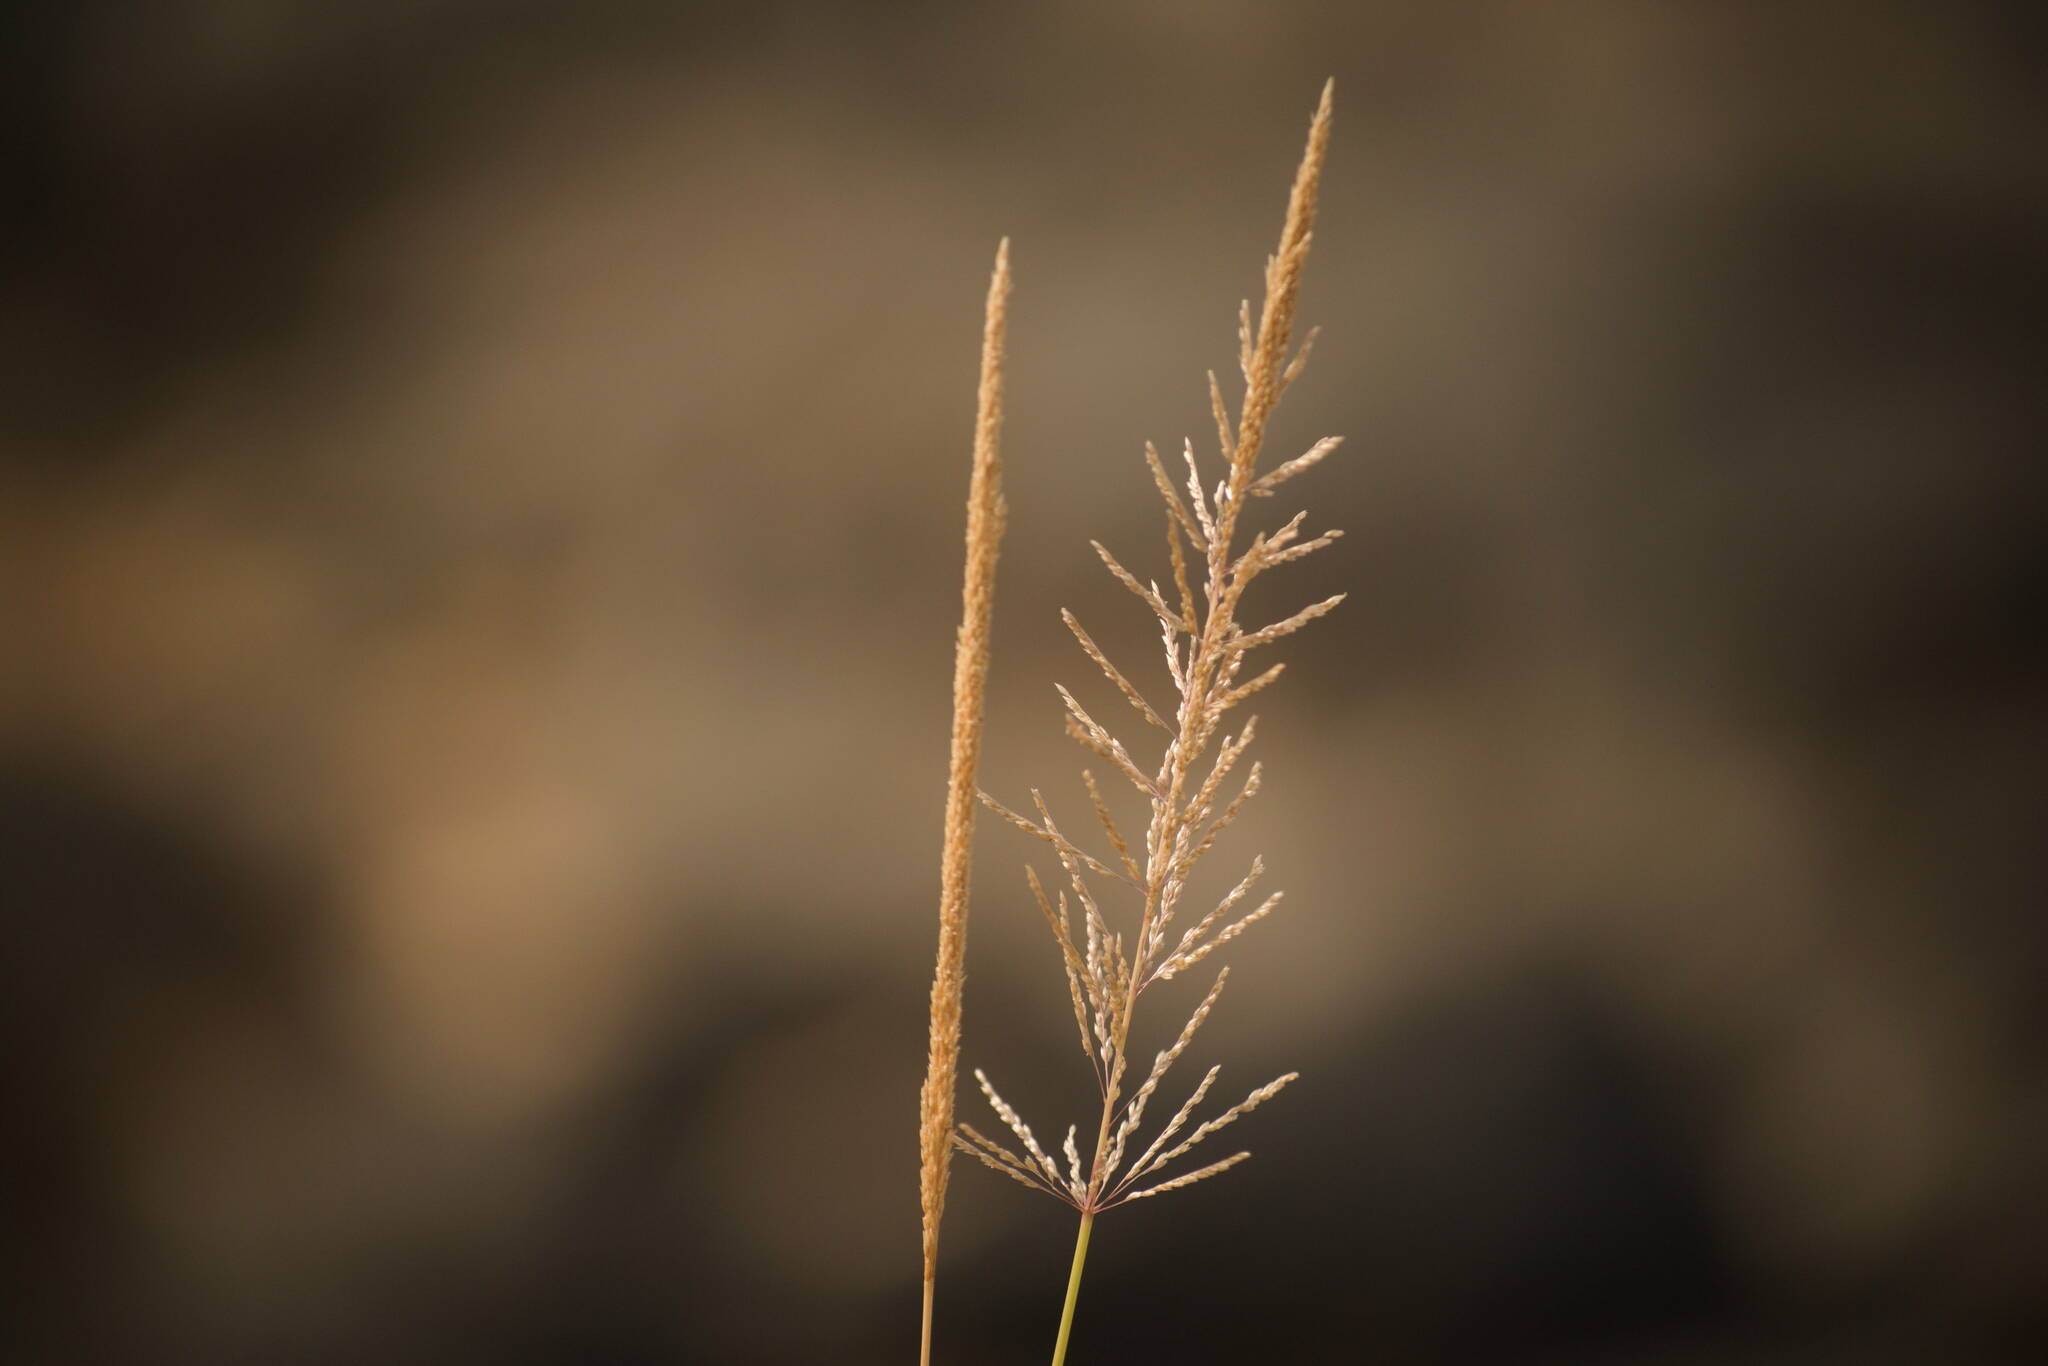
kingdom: Plantae
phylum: Tracheophyta
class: Liliopsida
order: Poales
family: Poaceae
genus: Sporobolus
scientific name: Sporobolus pyramidatus
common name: Whorled dropseed
